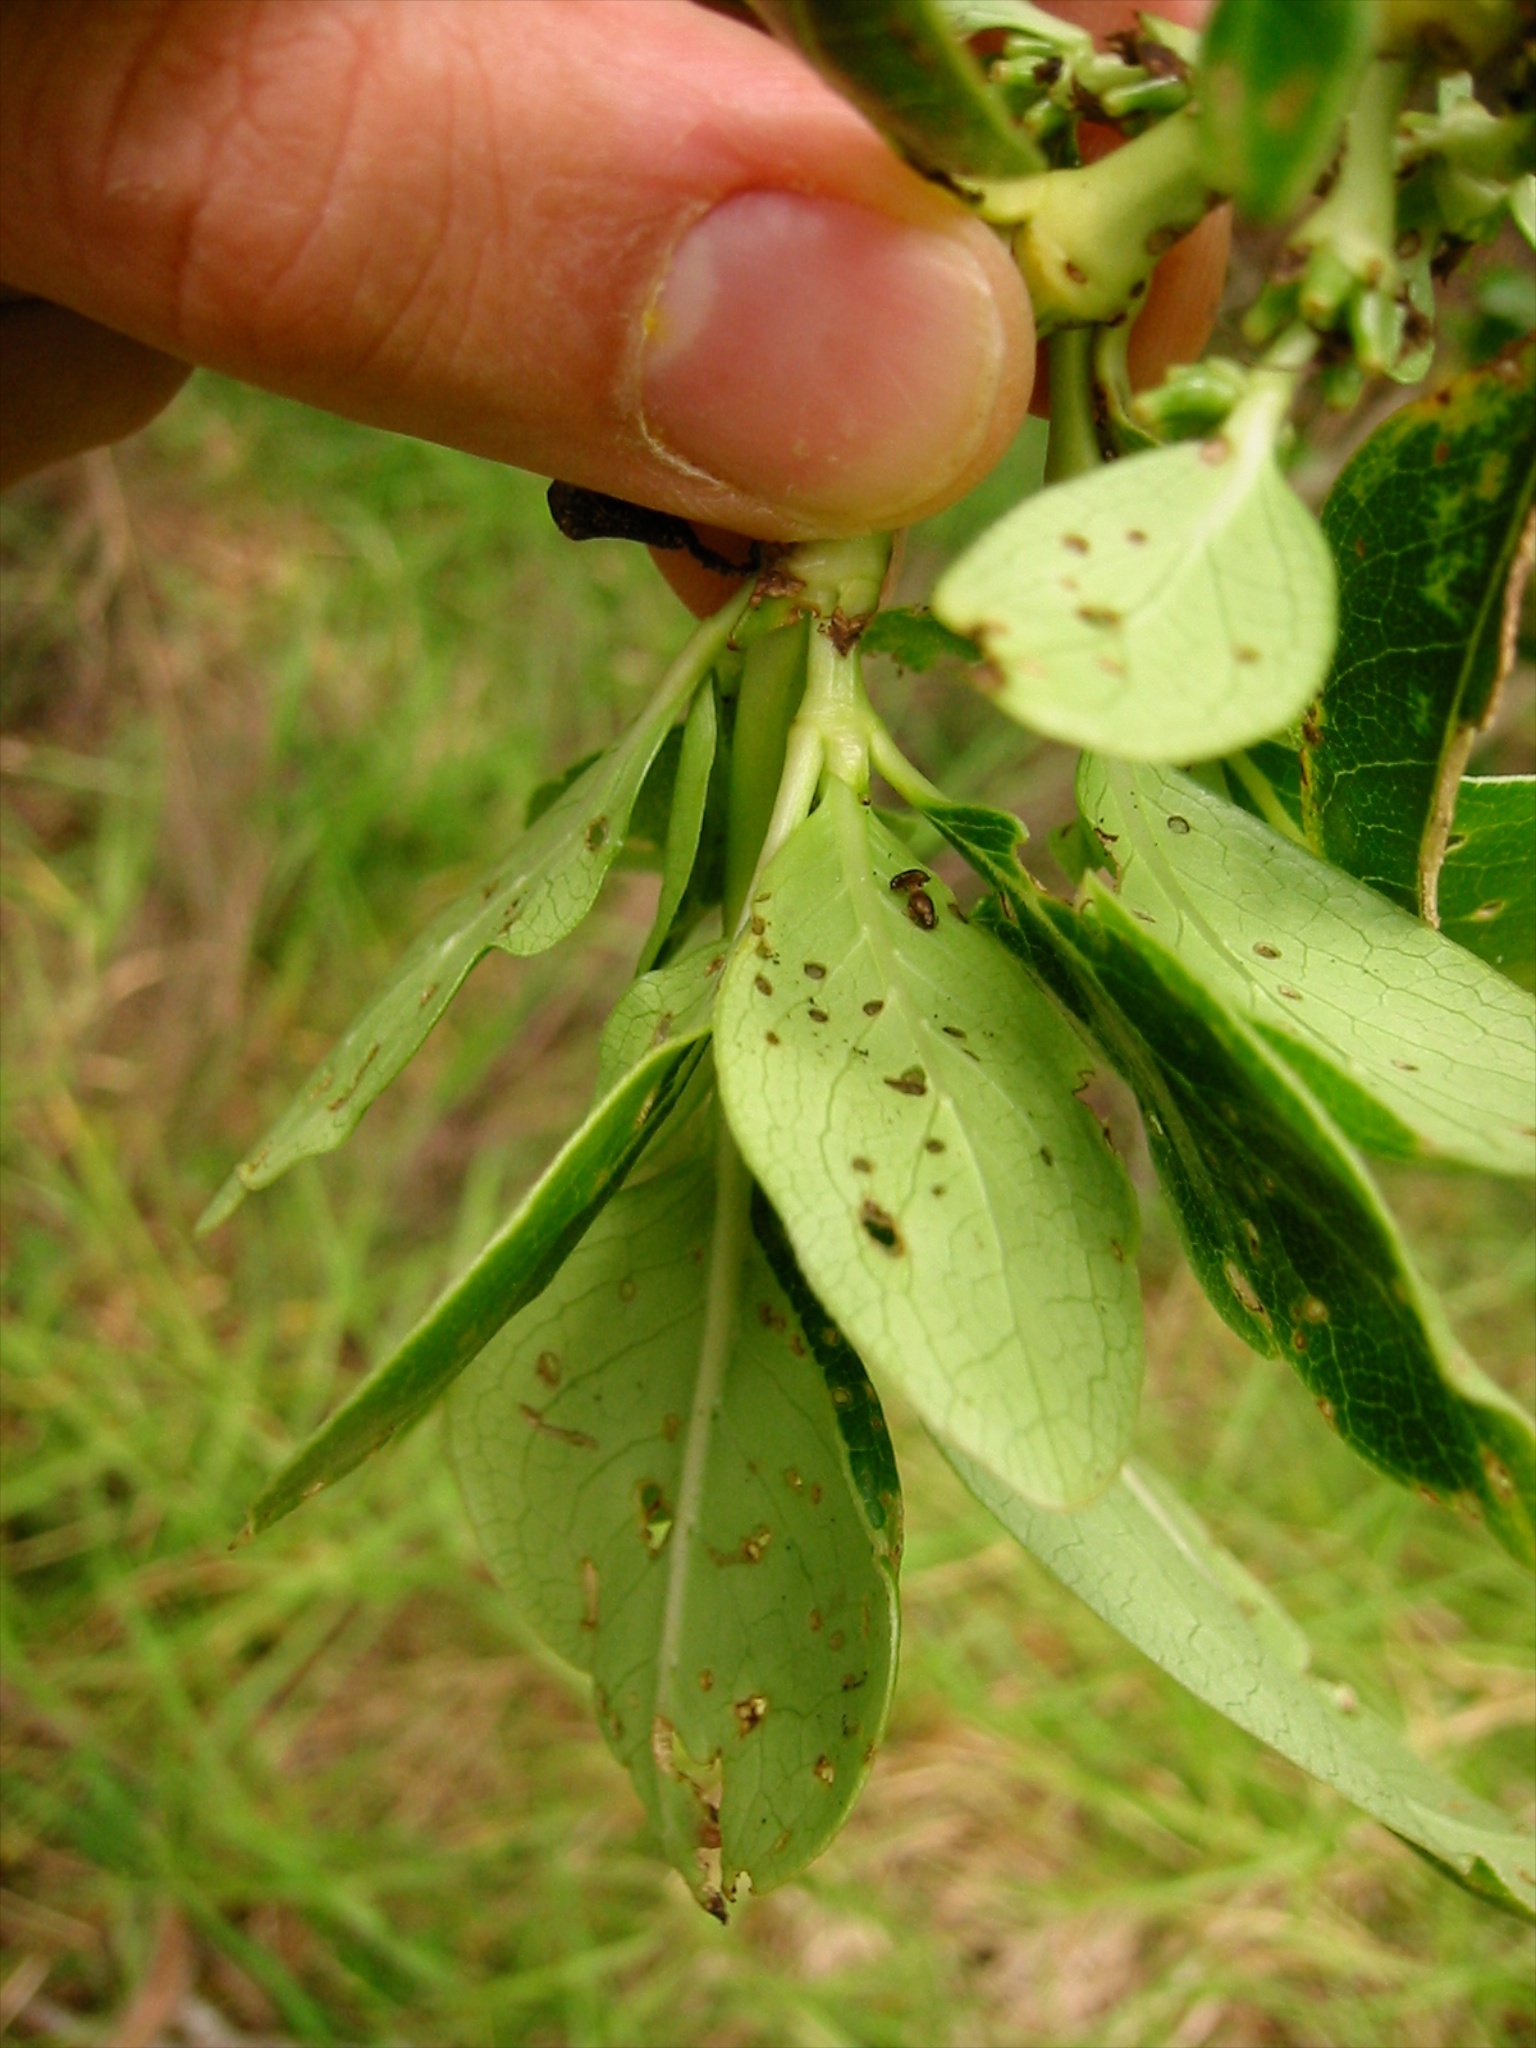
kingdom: Animalia
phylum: Arthropoda
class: Insecta
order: Coleoptera
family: Chrysomelidae
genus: Trachytetra
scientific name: Trachytetra
